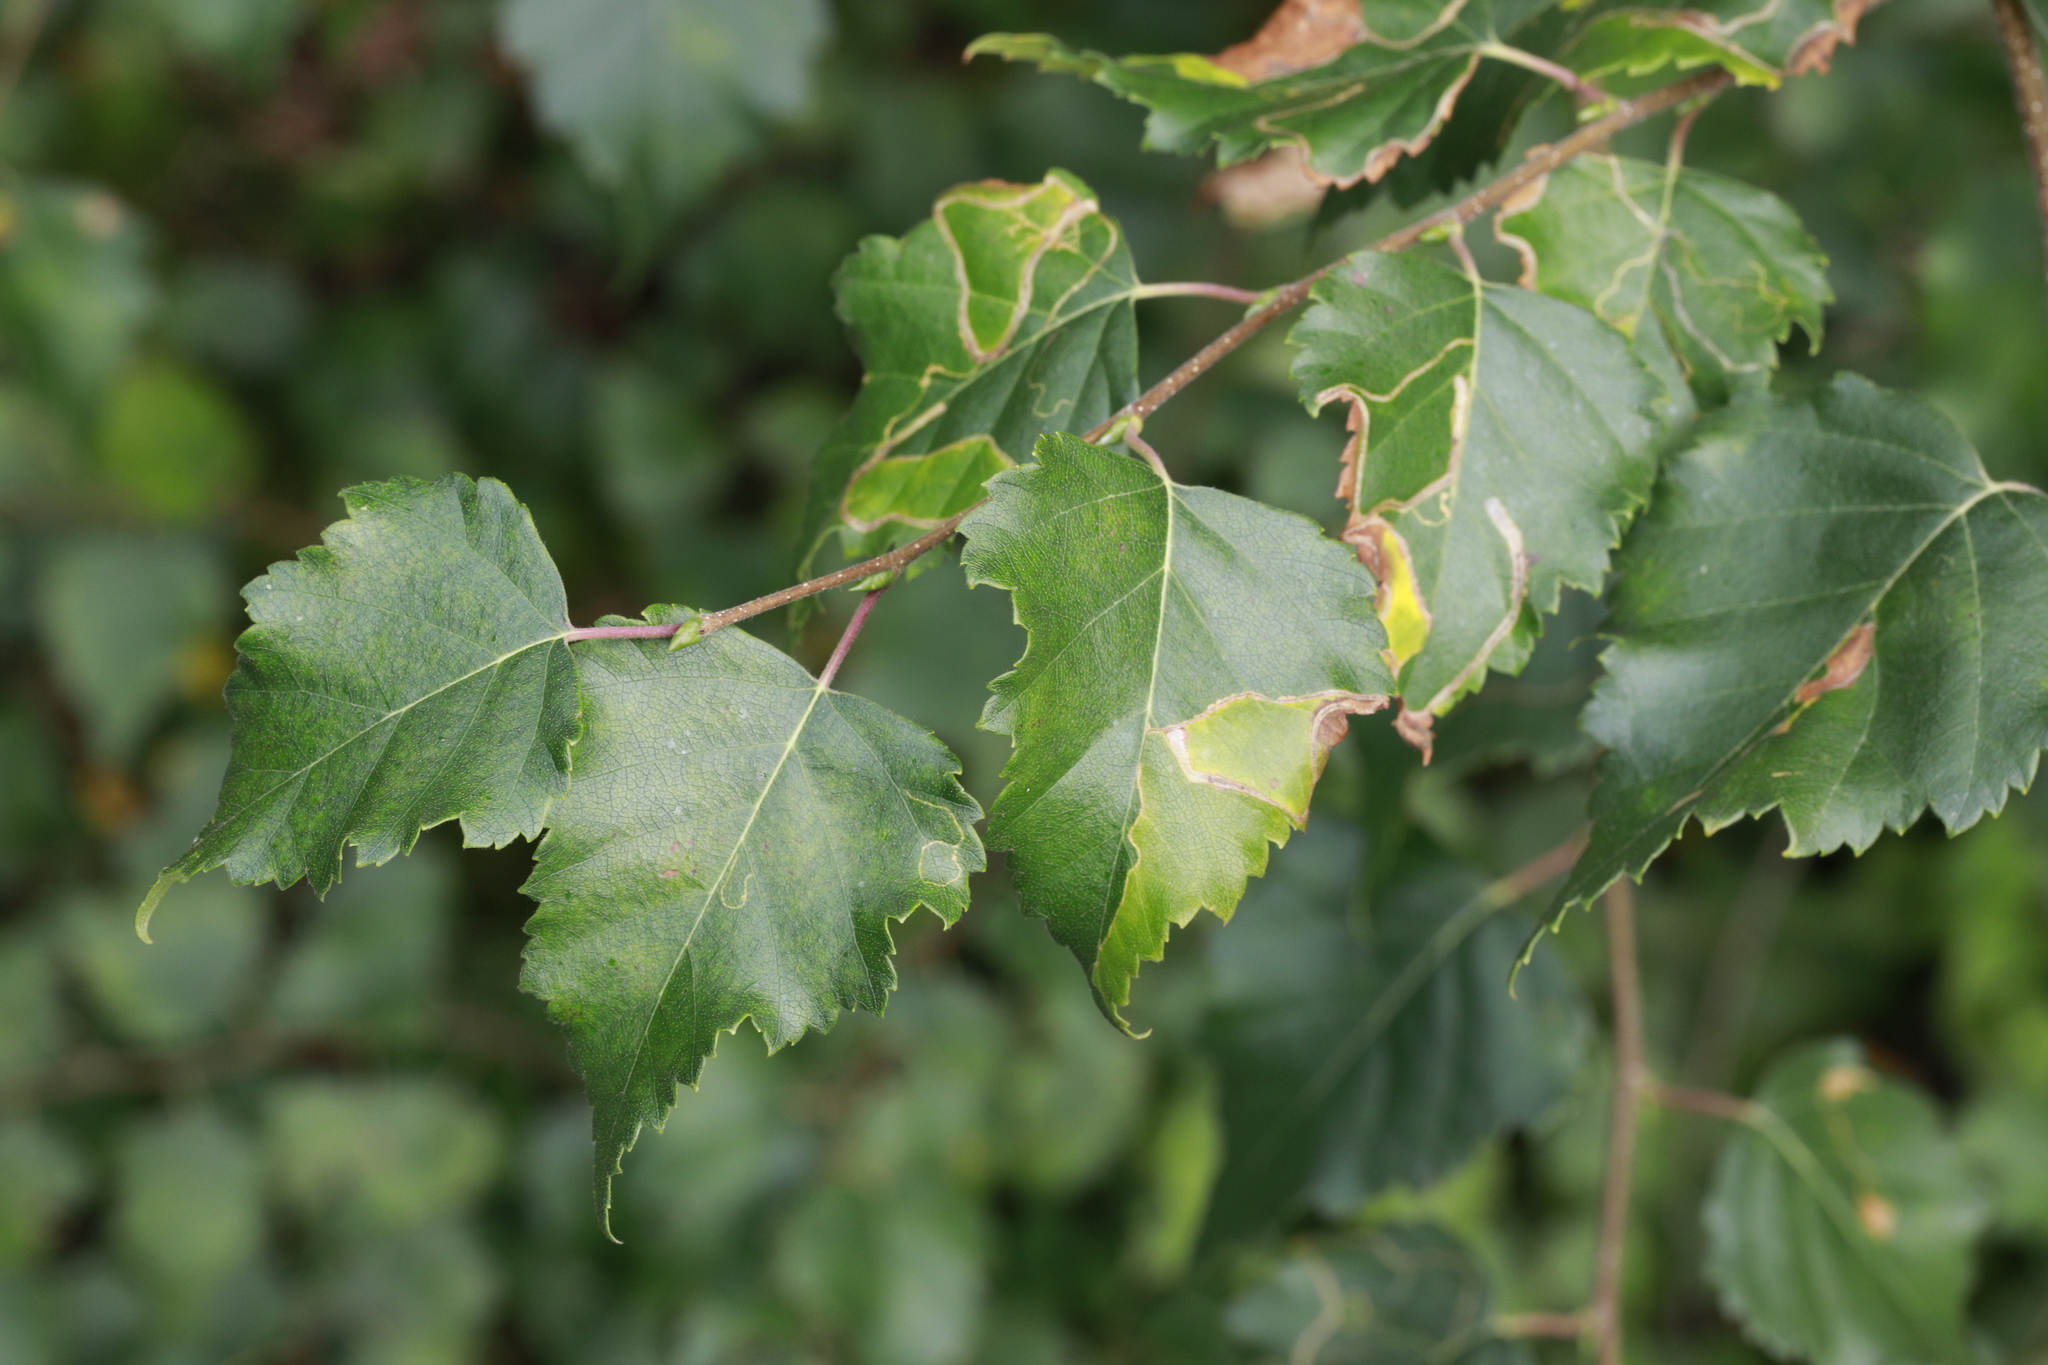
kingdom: Plantae
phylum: Tracheophyta
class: Magnoliopsida
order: Fagales
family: Betulaceae
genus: Betula
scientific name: Betula pendula
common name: Silver birch
